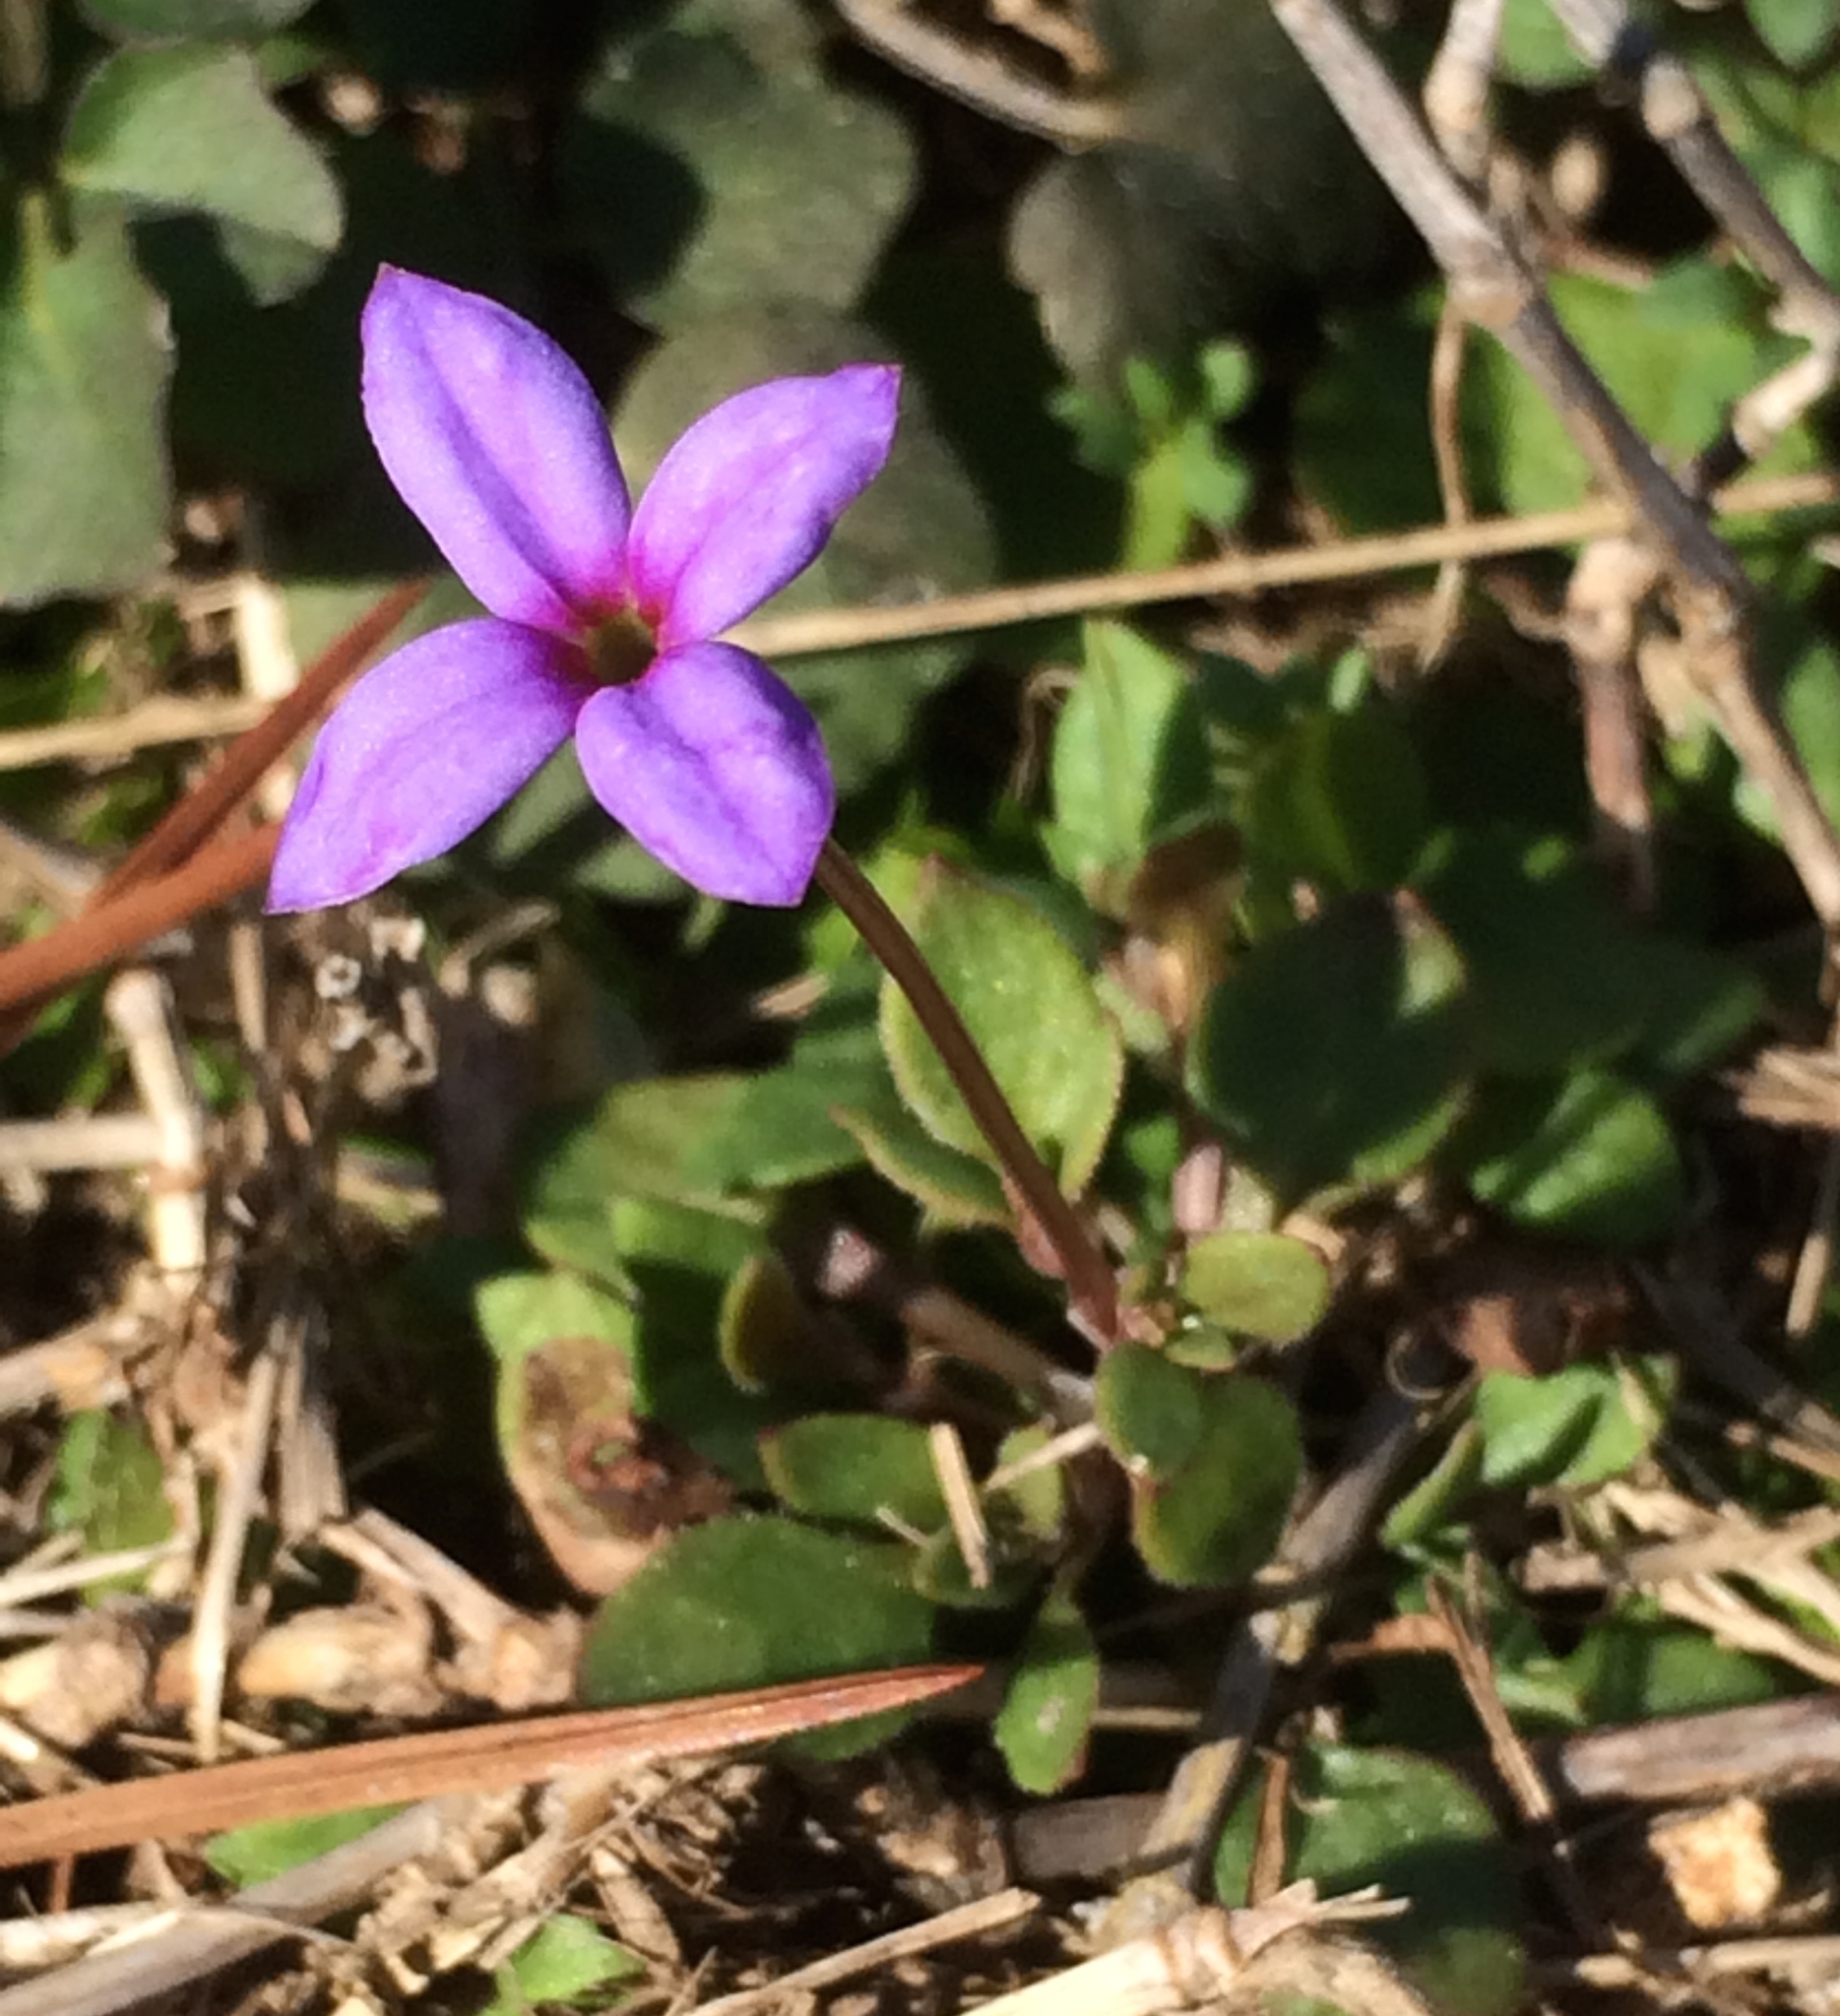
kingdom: Plantae
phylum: Tracheophyta
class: Magnoliopsida
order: Gentianales
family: Rubiaceae
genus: Houstonia
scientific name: Houstonia pusilla
